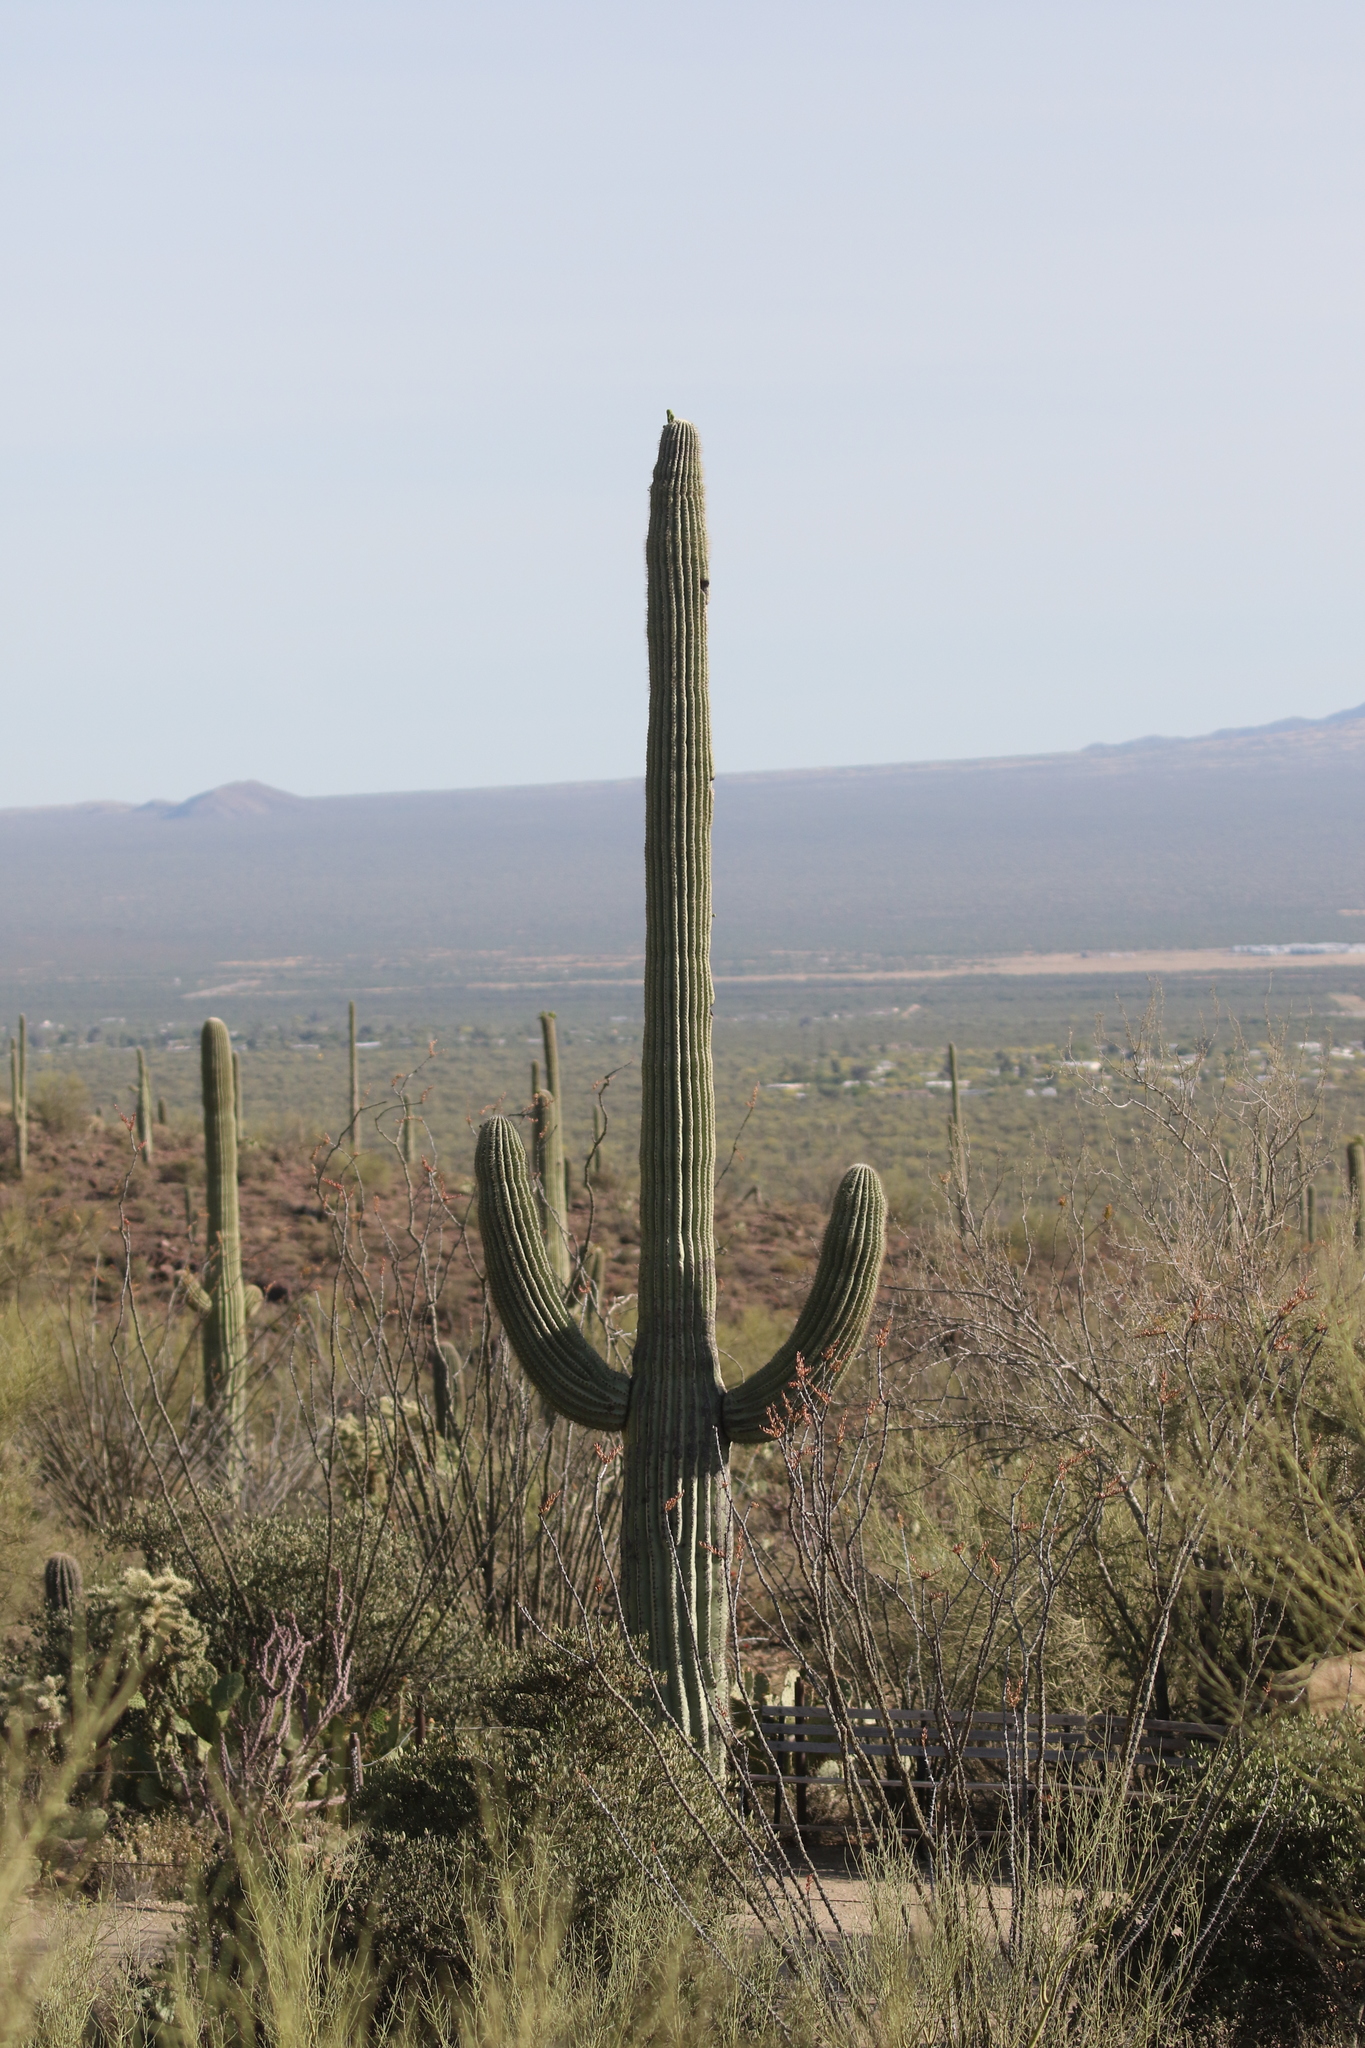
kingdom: Plantae
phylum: Tracheophyta
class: Magnoliopsida
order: Caryophyllales
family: Cactaceae
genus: Carnegiea
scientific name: Carnegiea gigantea
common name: Saguaro
